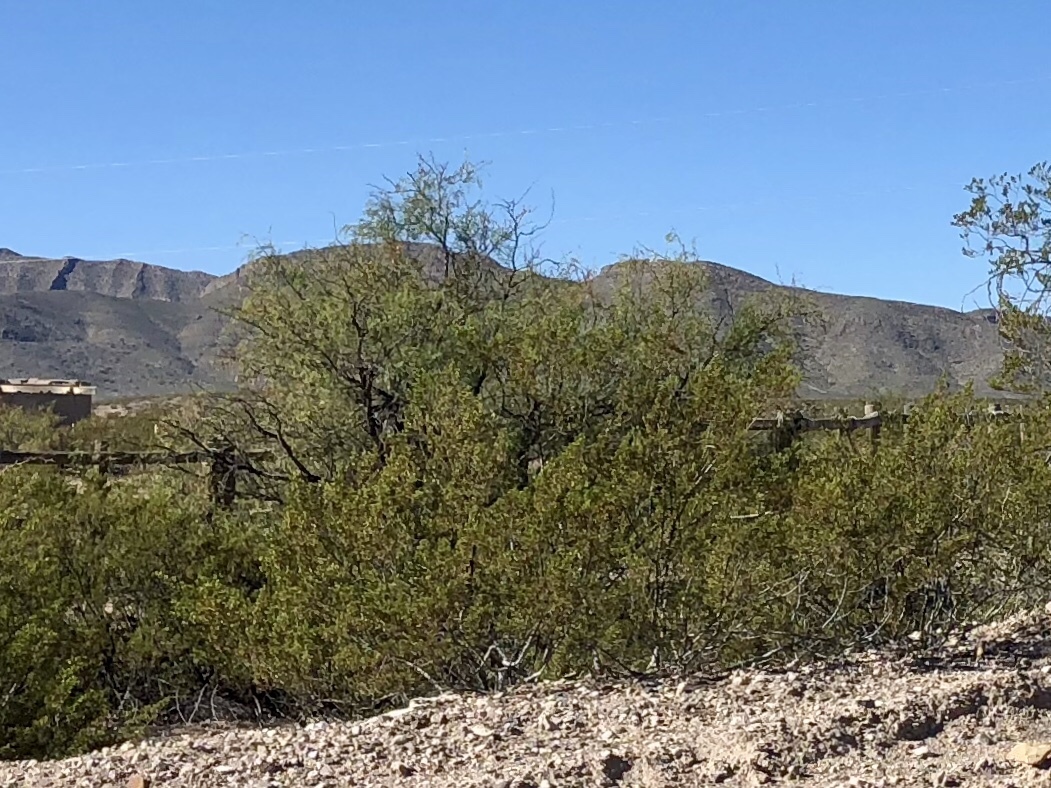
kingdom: Plantae
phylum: Tracheophyta
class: Magnoliopsida
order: Zygophyllales
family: Zygophyllaceae
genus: Larrea
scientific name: Larrea tridentata
